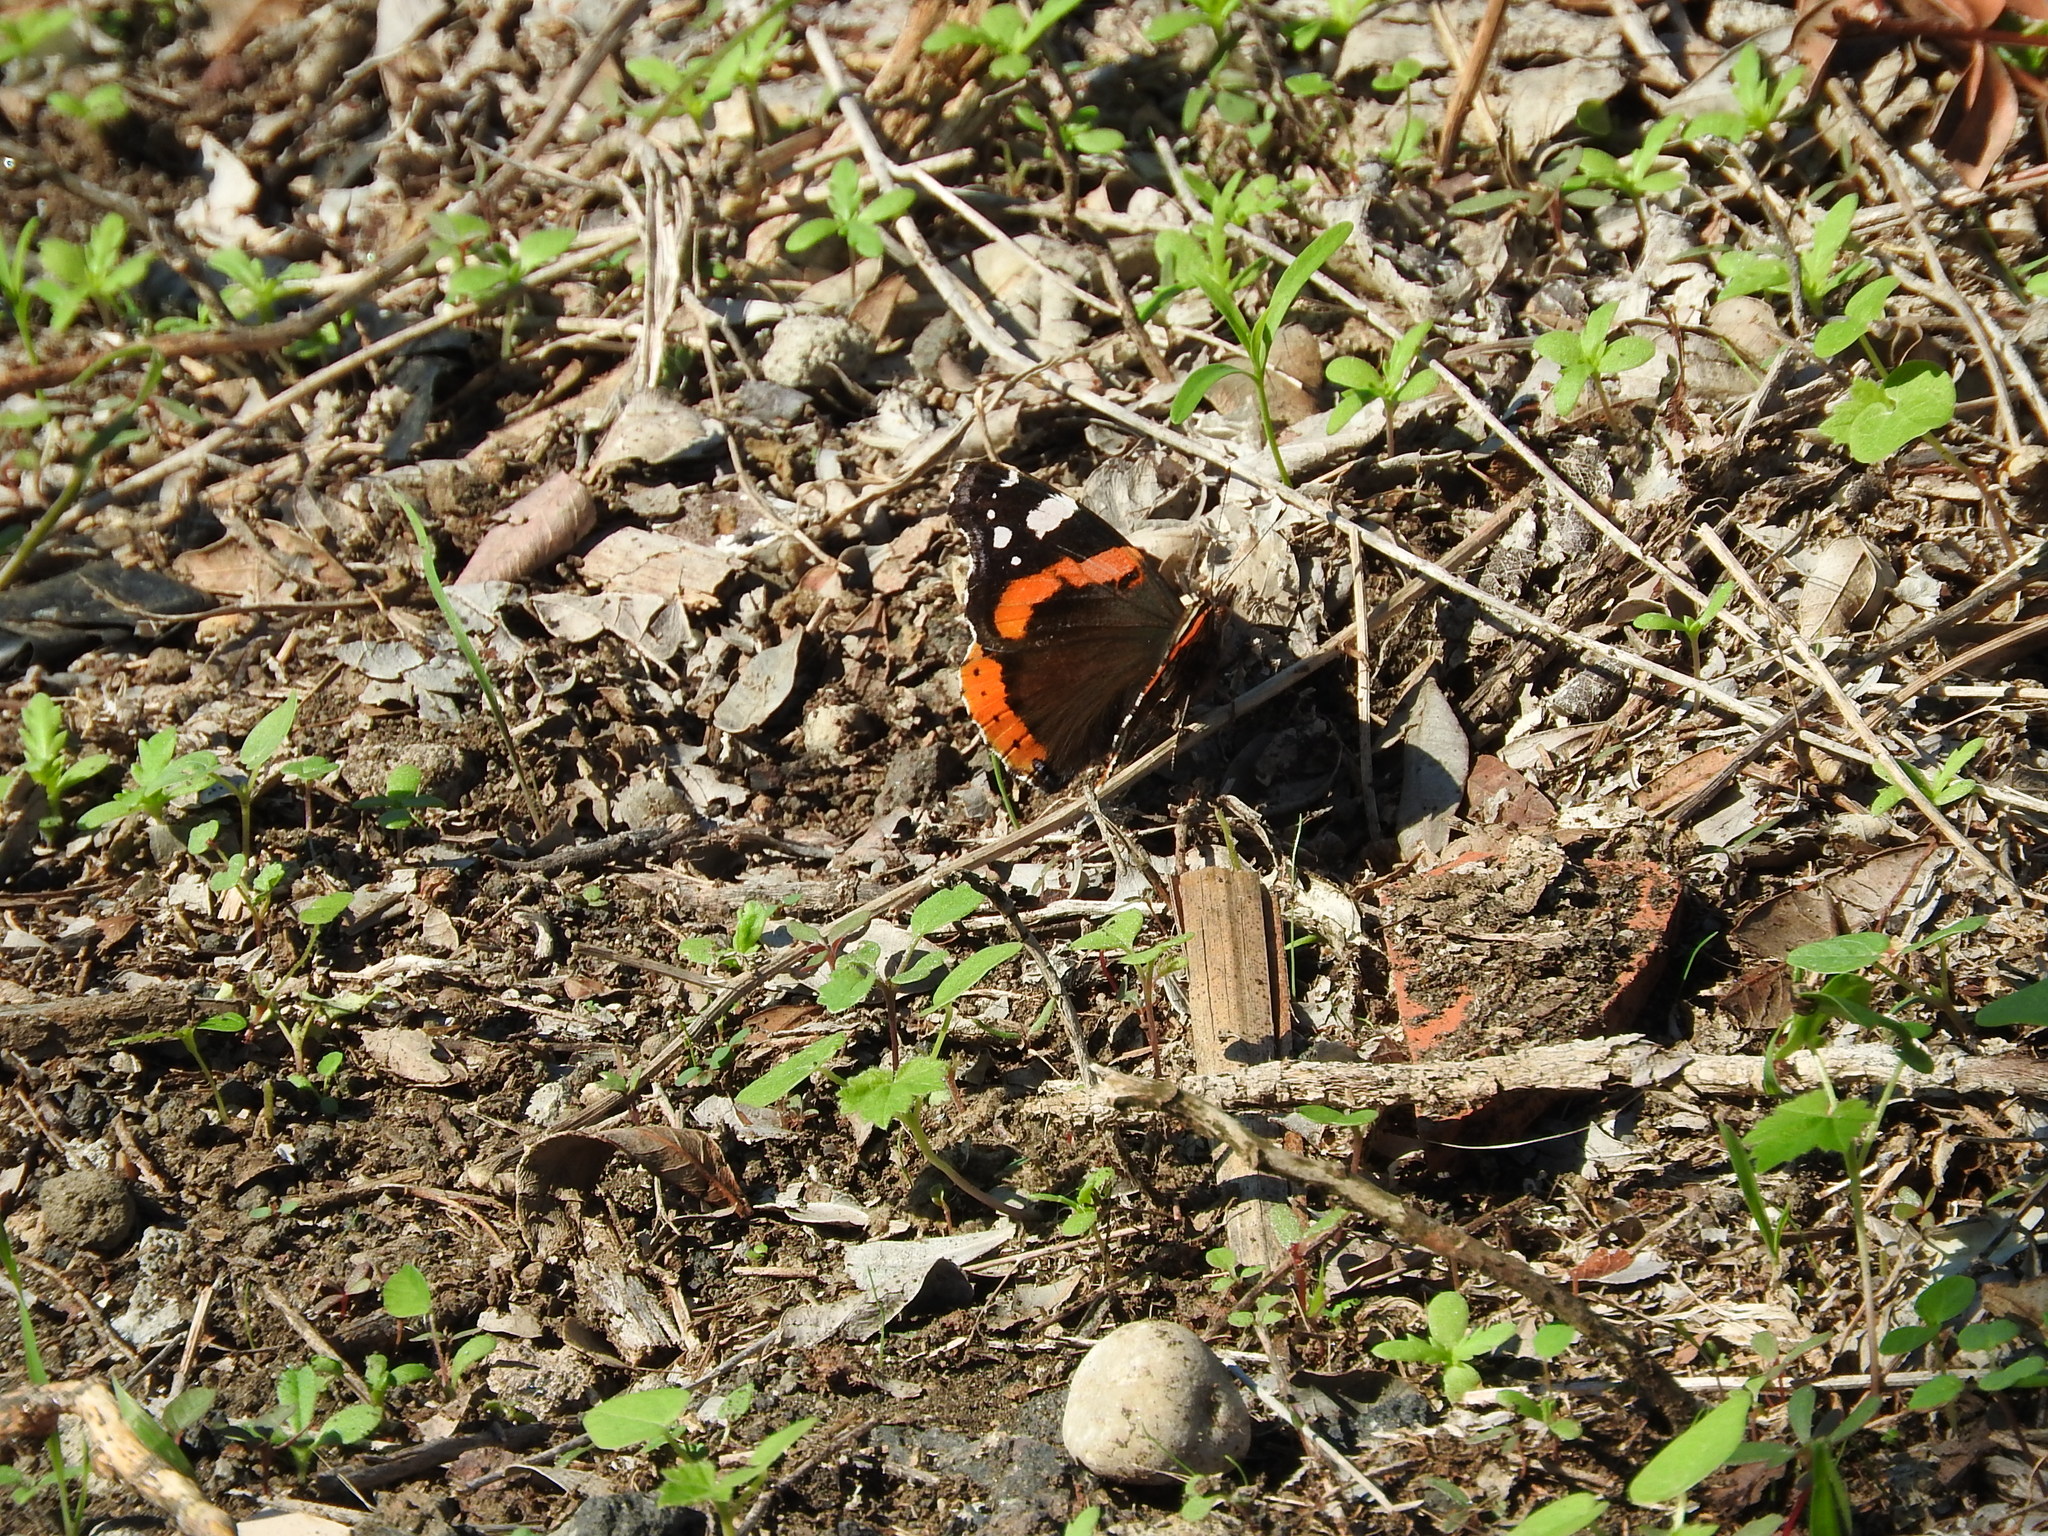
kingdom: Animalia
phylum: Arthropoda
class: Insecta
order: Lepidoptera
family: Nymphalidae
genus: Vanessa
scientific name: Vanessa atalanta
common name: Red admiral
